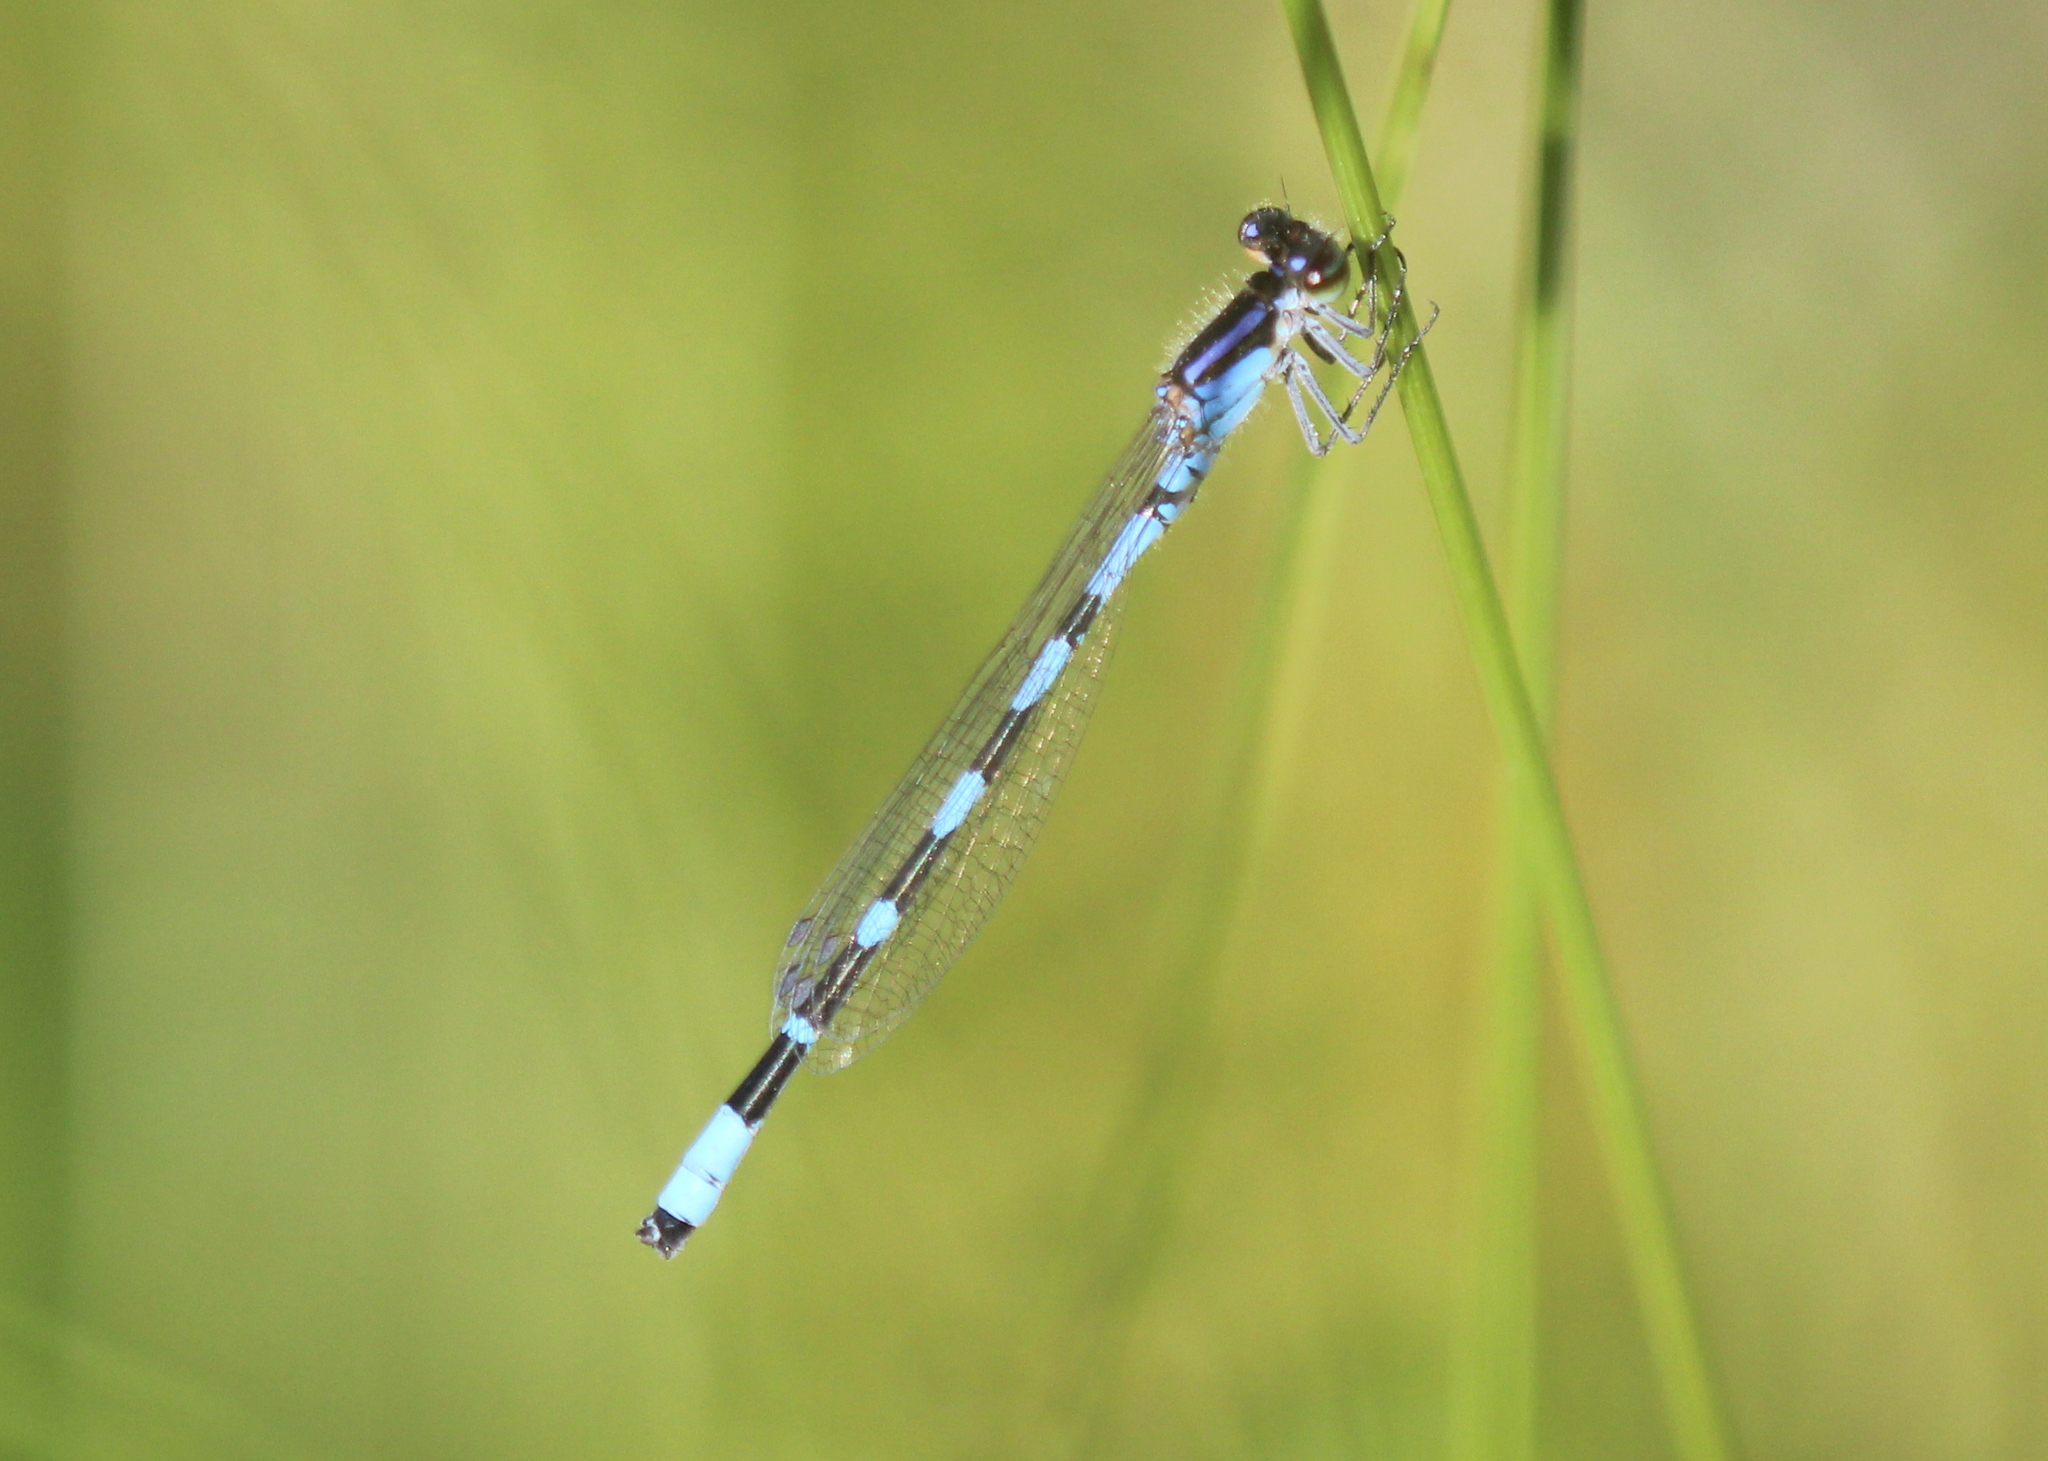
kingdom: Animalia
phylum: Arthropoda
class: Insecta
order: Odonata
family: Coenagrionidae
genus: Enallagma
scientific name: Enallagma minusculum
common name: Little bluet
